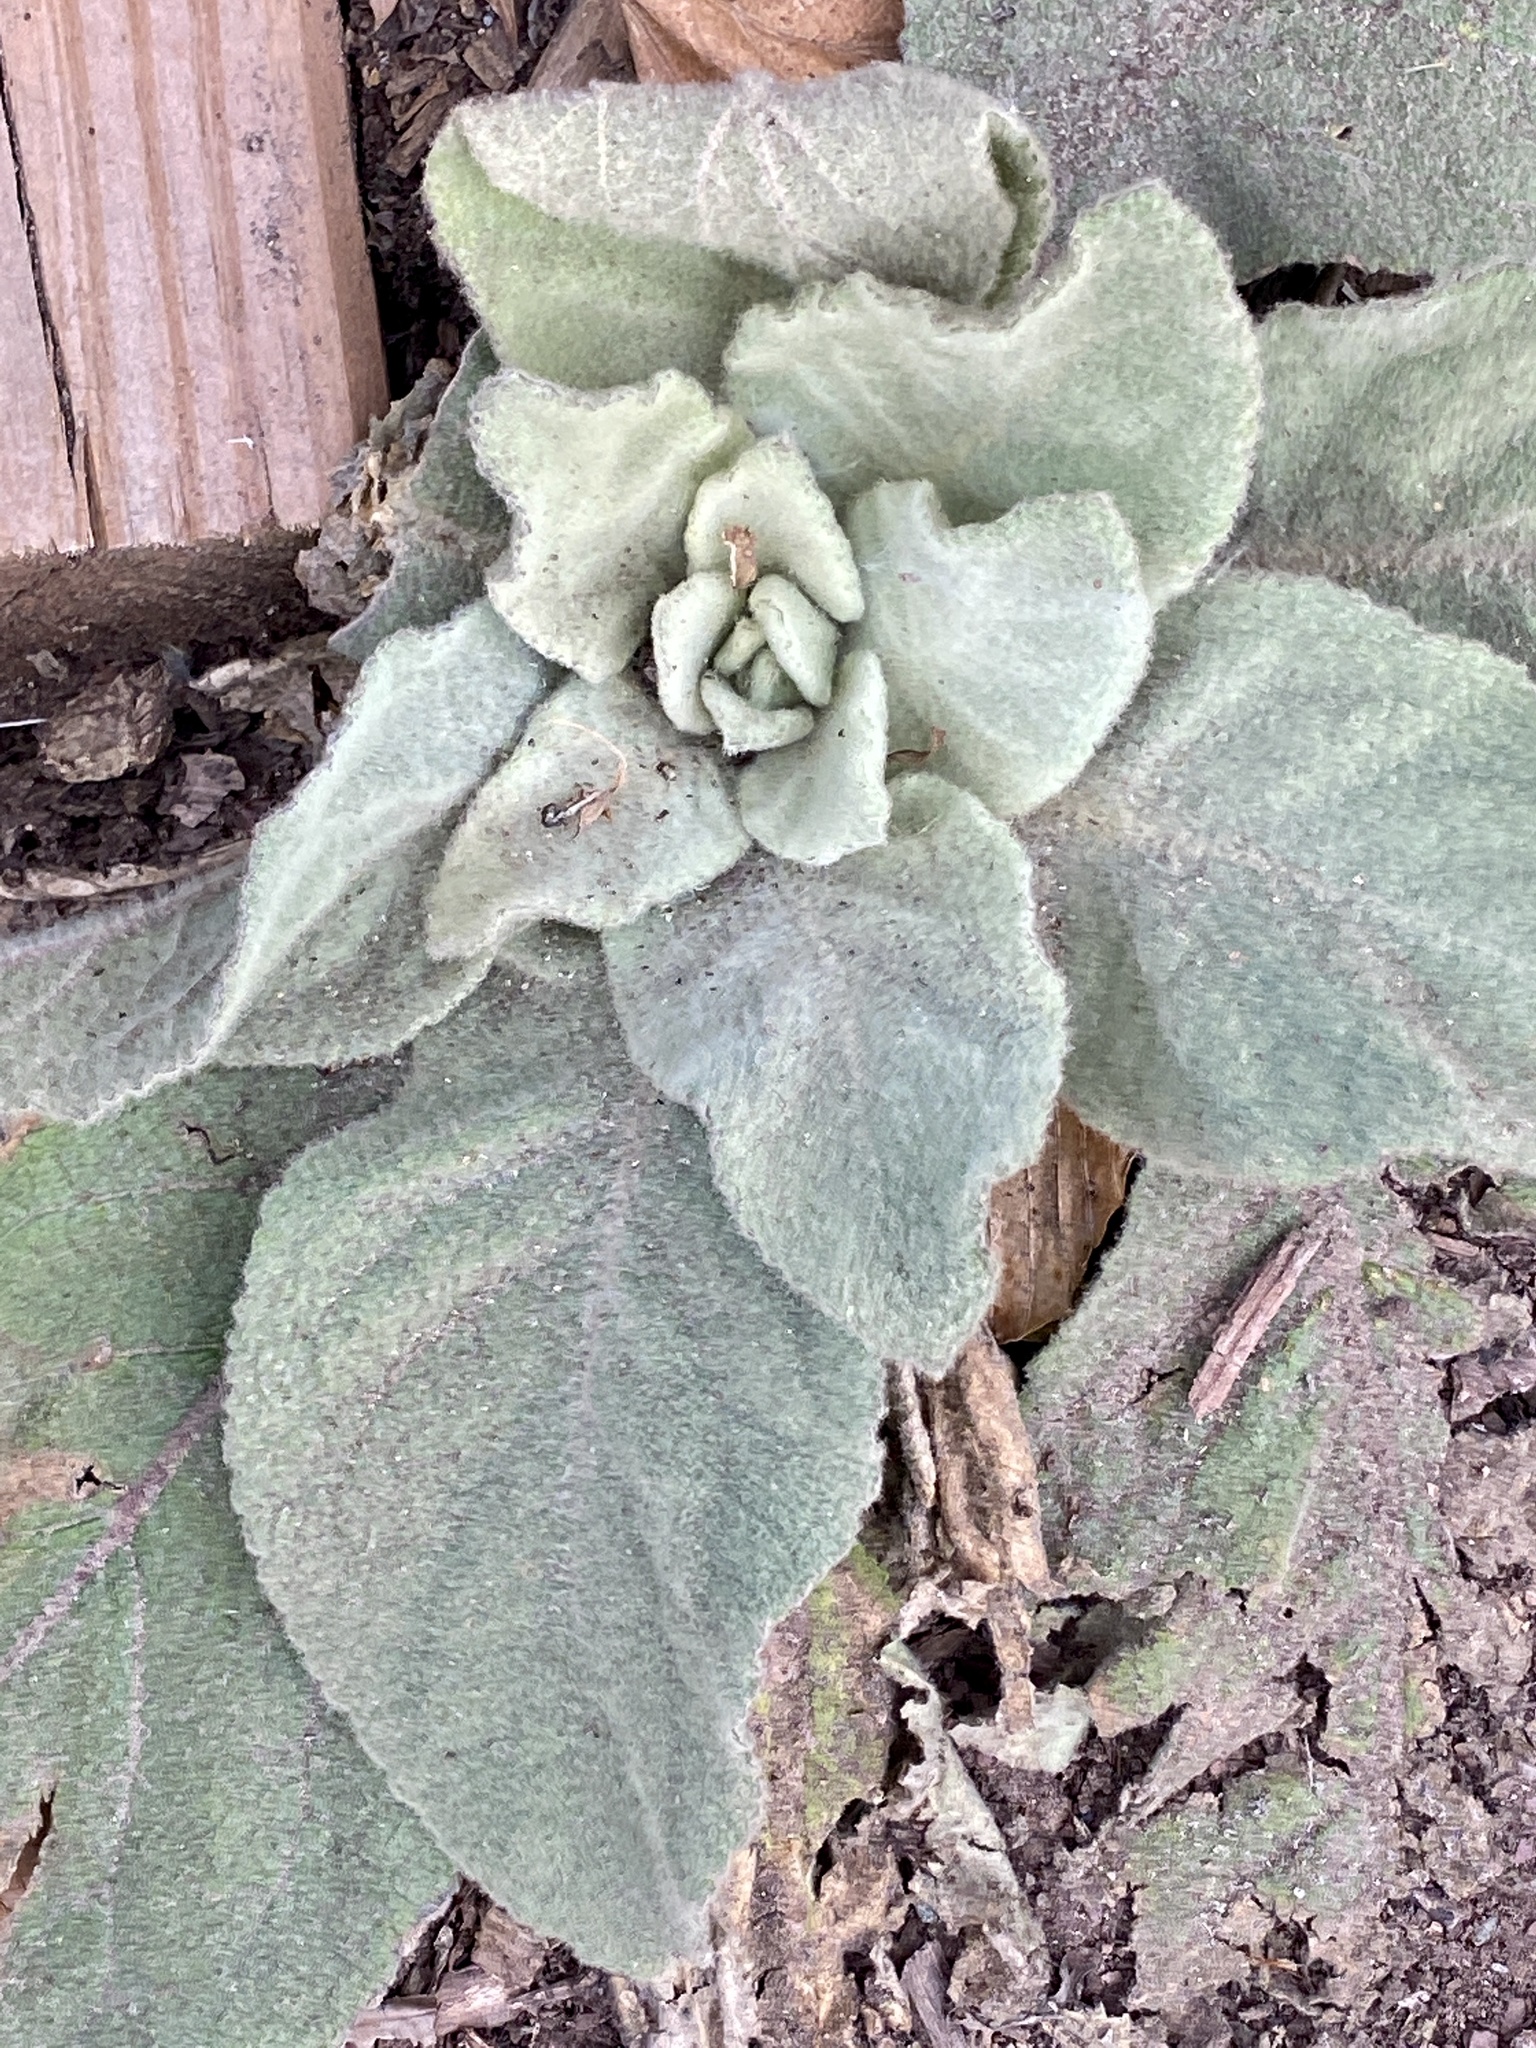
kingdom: Plantae
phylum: Tracheophyta
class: Magnoliopsida
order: Lamiales
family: Scrophulariaceae
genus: Verbascum
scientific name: Verbascum thapsus
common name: Common mullein
